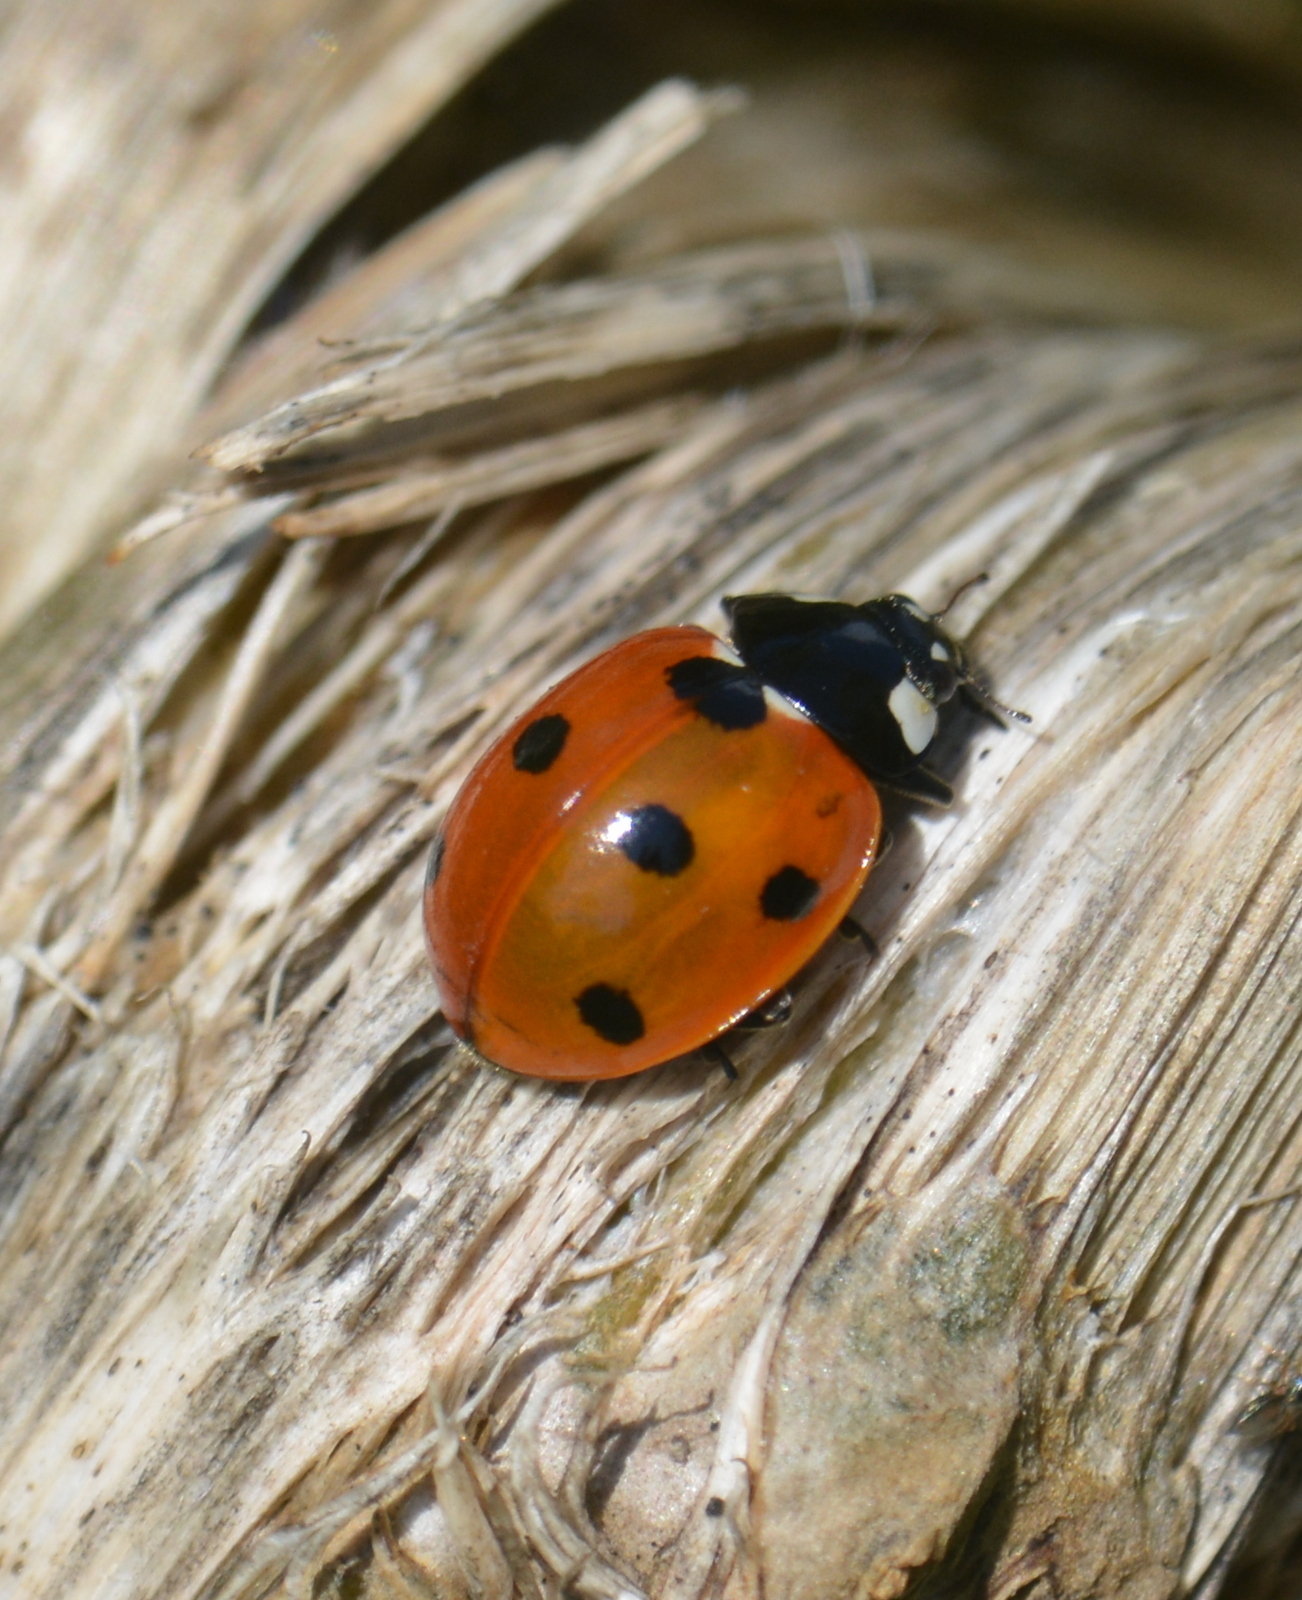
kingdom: Animalia
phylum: Arthropoda
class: Insecta
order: Coleoptera
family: Coccinellidae
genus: Coccinella
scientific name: Coccinella septempunctata
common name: Sevenspotted lady beetle
